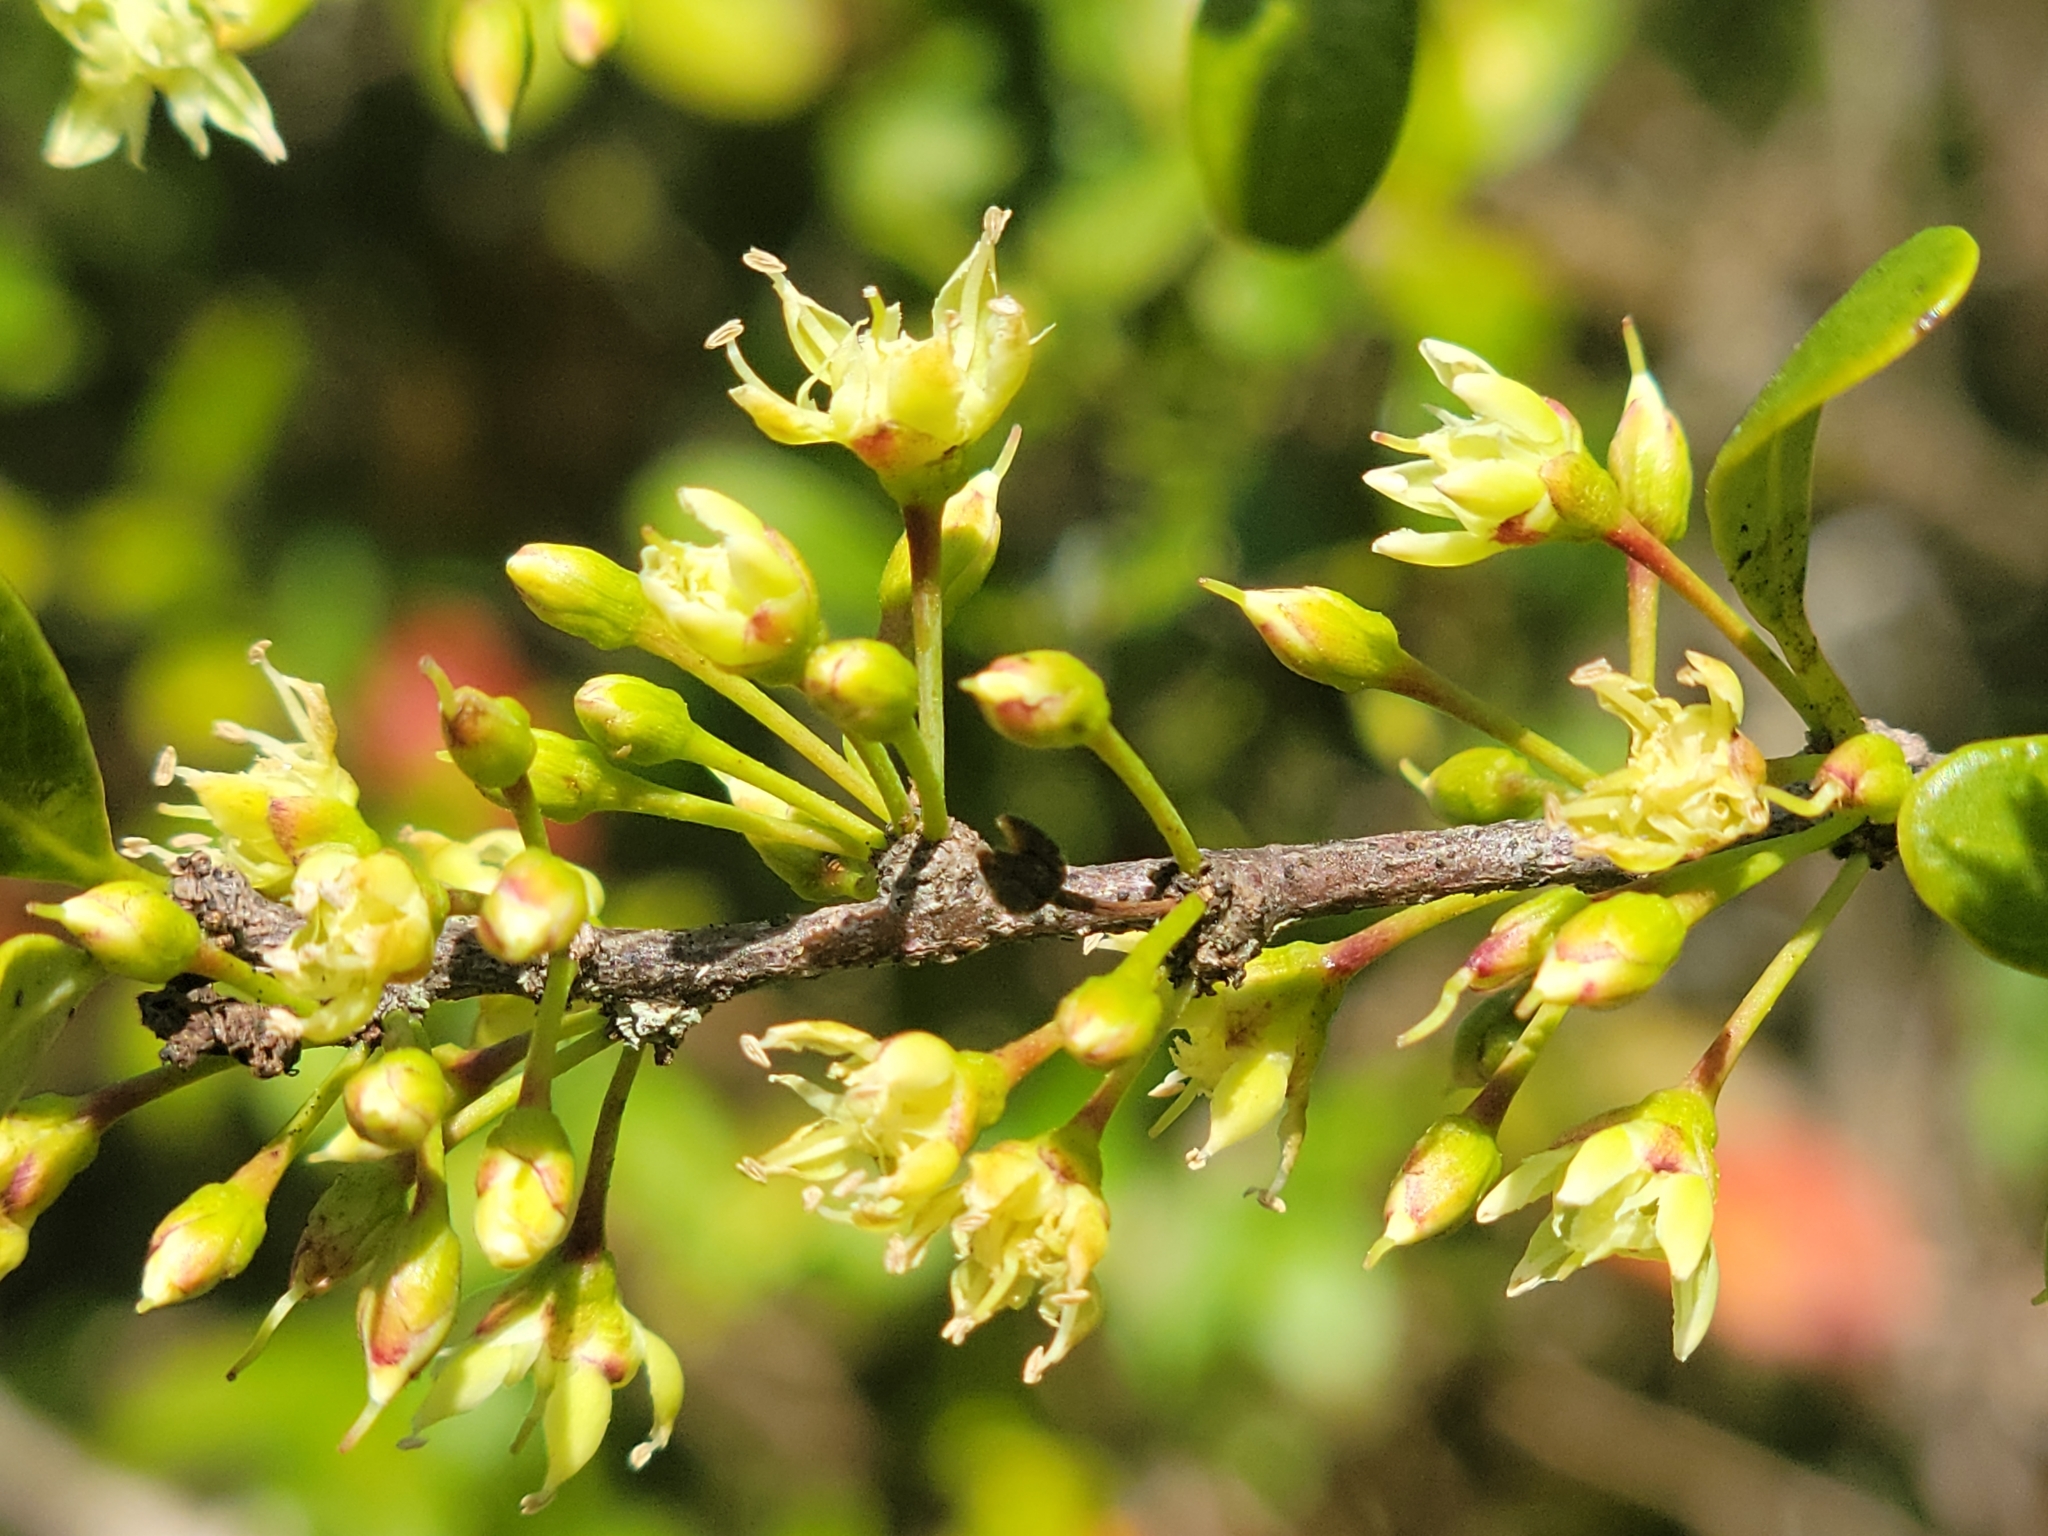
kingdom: Plantae
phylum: Tracheophyta
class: Magnoliopsida
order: Ericales
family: Sapotaceae
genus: Sideroxylon
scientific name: Sideroxylon celastrinum
